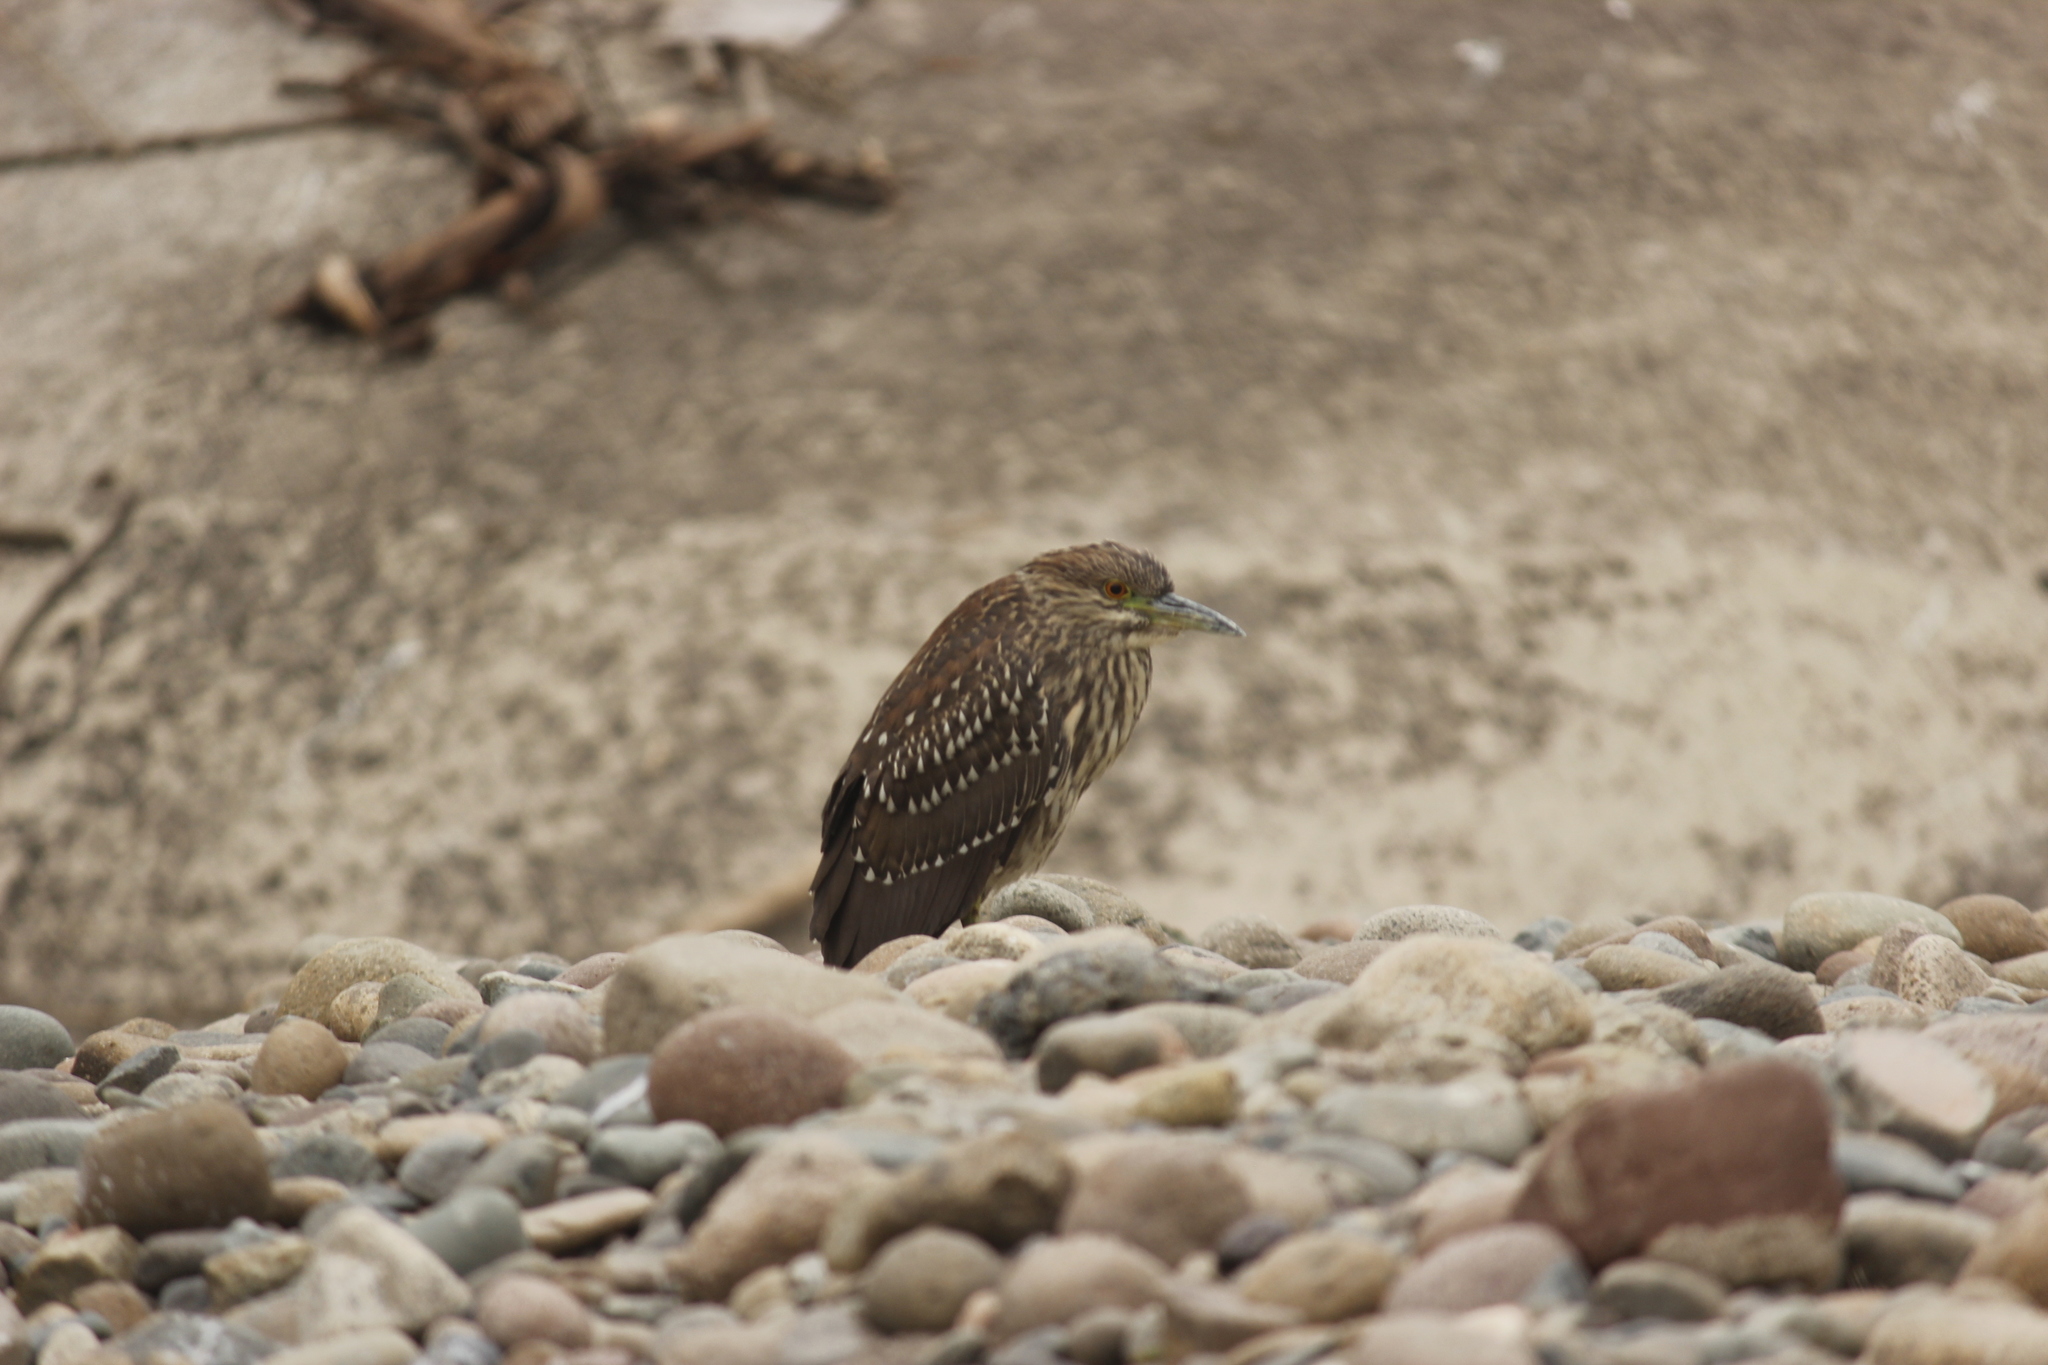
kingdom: Animalia
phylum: Chordata
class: Aves
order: Pelecaniformes
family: Ardeidae
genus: Nycticorax
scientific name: Nycticorax nycticorax
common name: Black-crowned night heron
